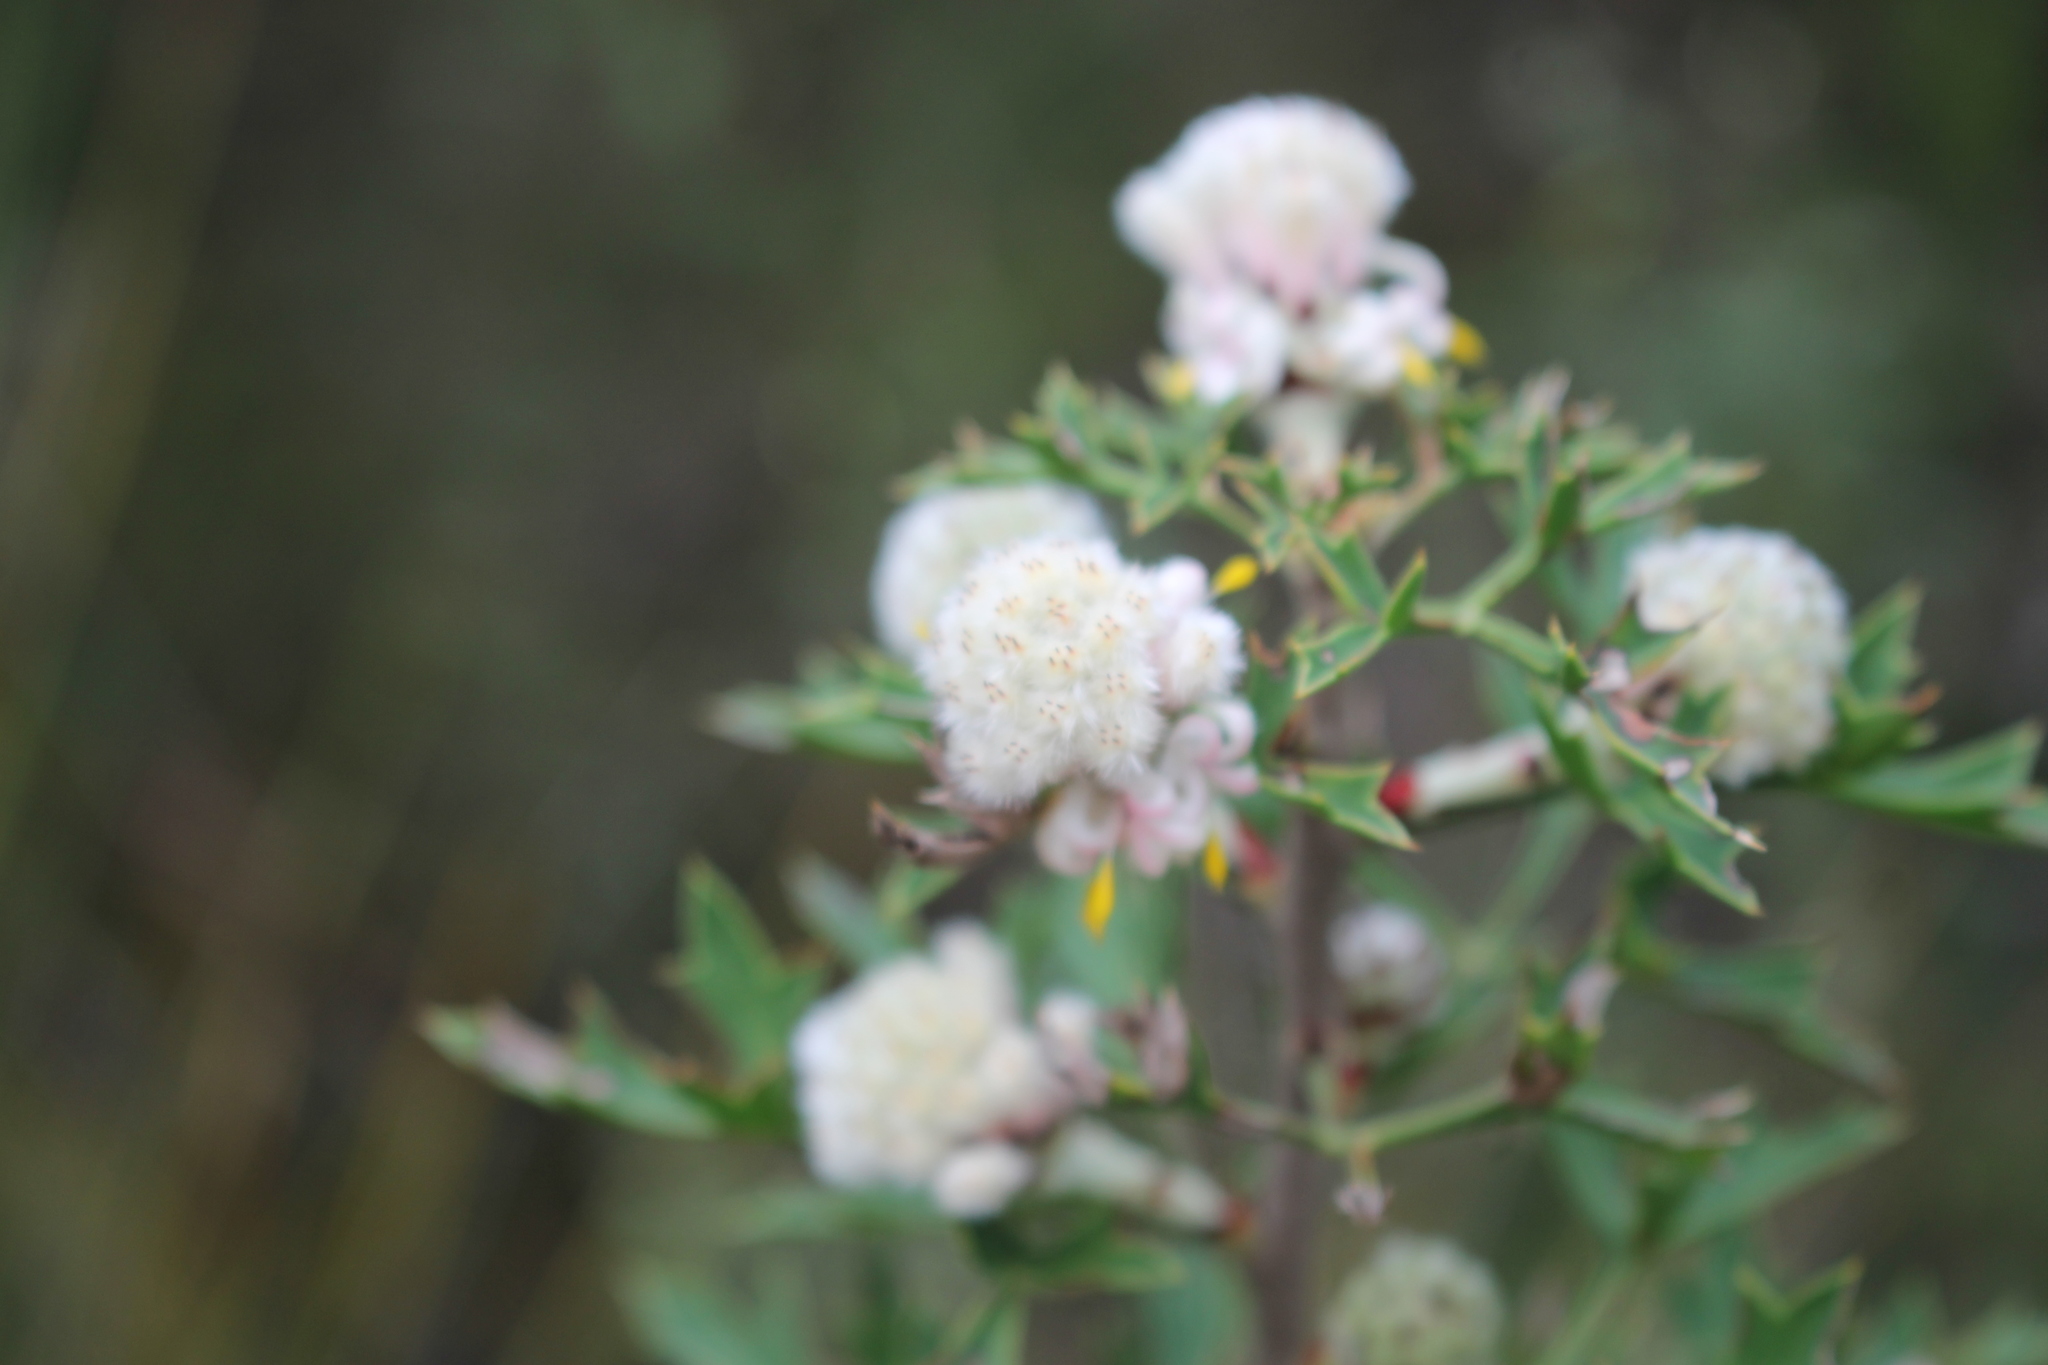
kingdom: Plantae
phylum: Tracheophyta
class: Magnoliopsida
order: Proteales
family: Proteaceae
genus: Petrophile
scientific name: Petrophile diversifolia
